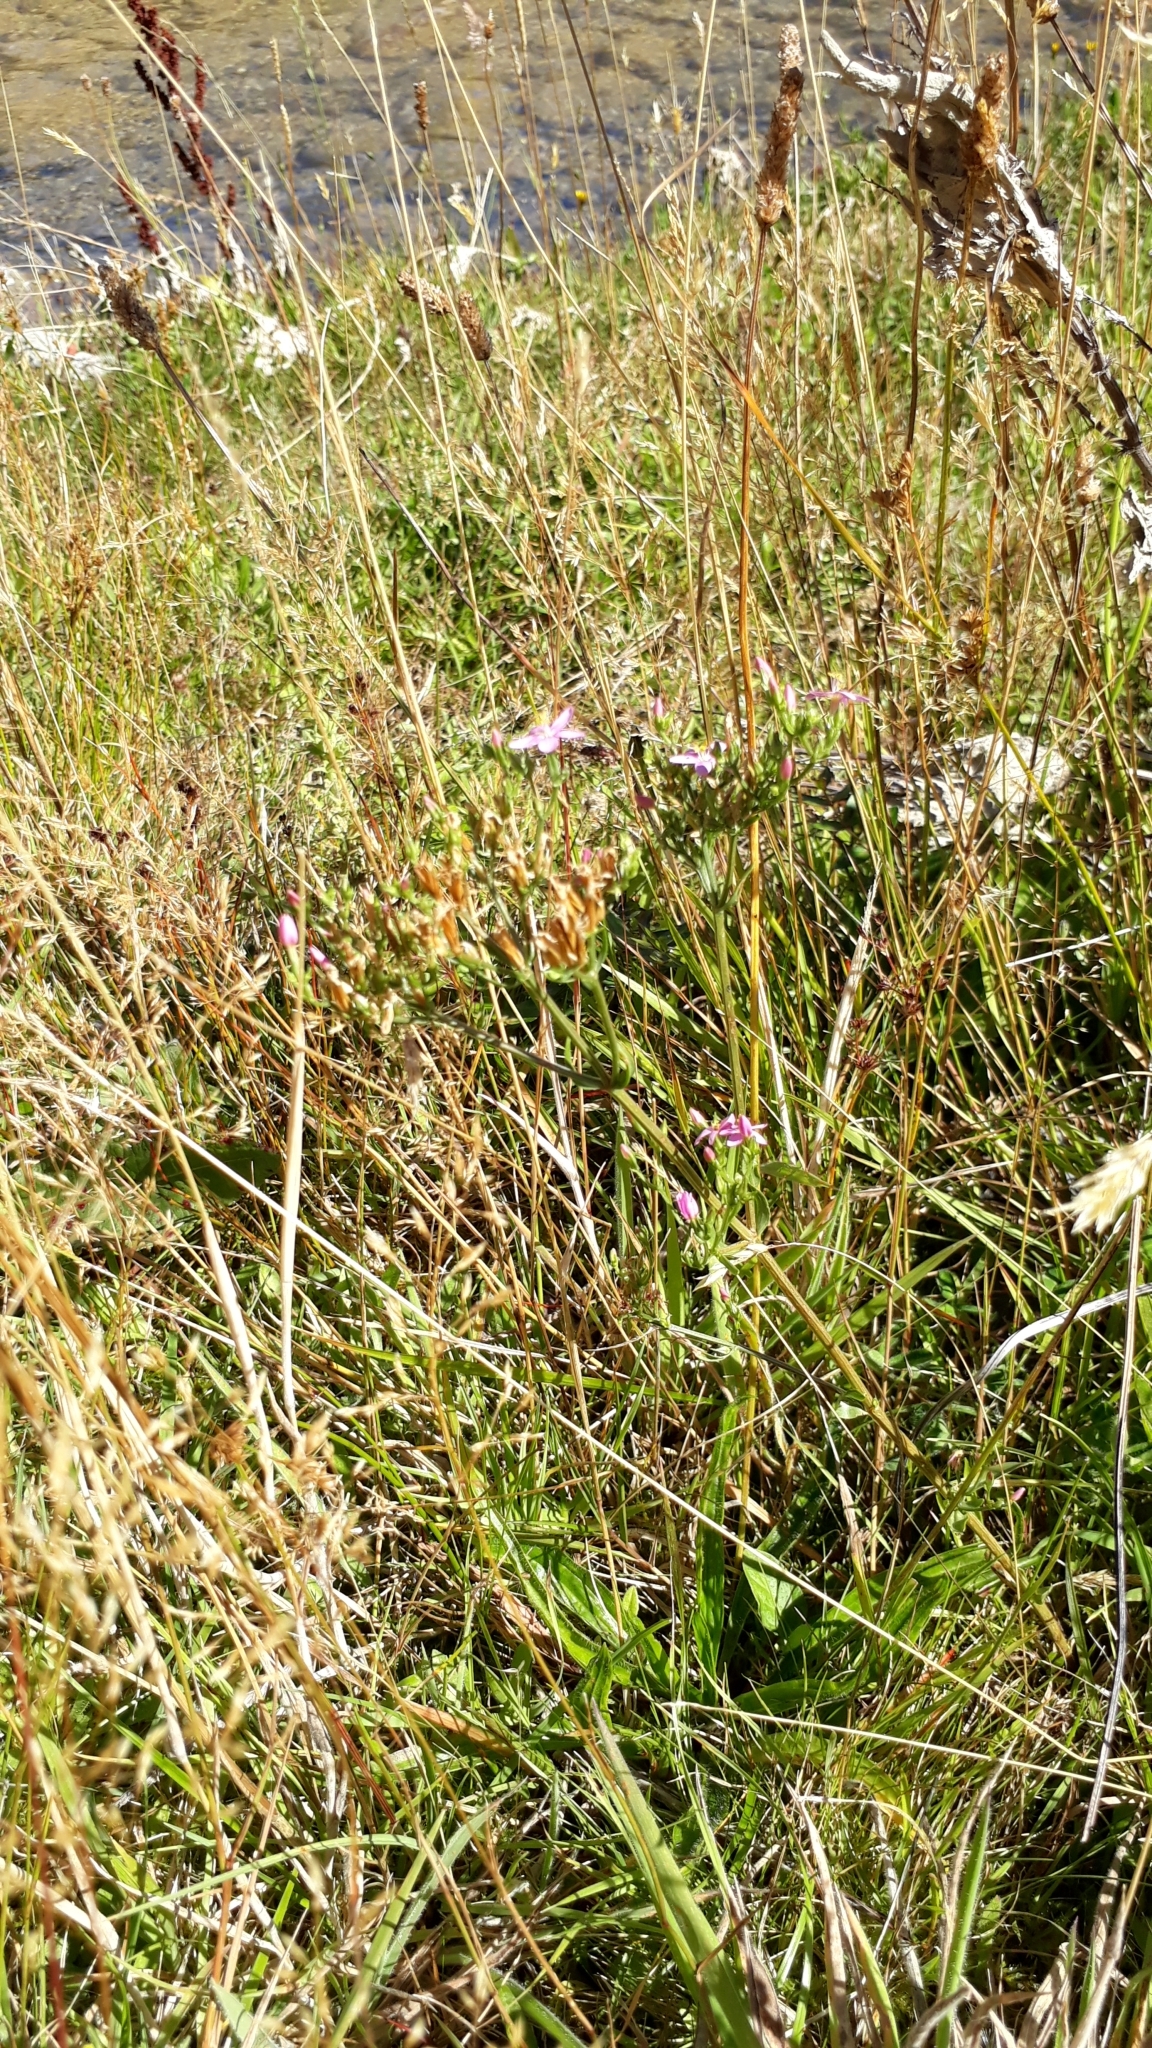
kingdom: Plantae
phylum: Tracheophyta
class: Magnoliopsida
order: Gentianales
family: Gentianaceae
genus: Centaurium
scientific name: Centaurium erythraea
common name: Common centaury
